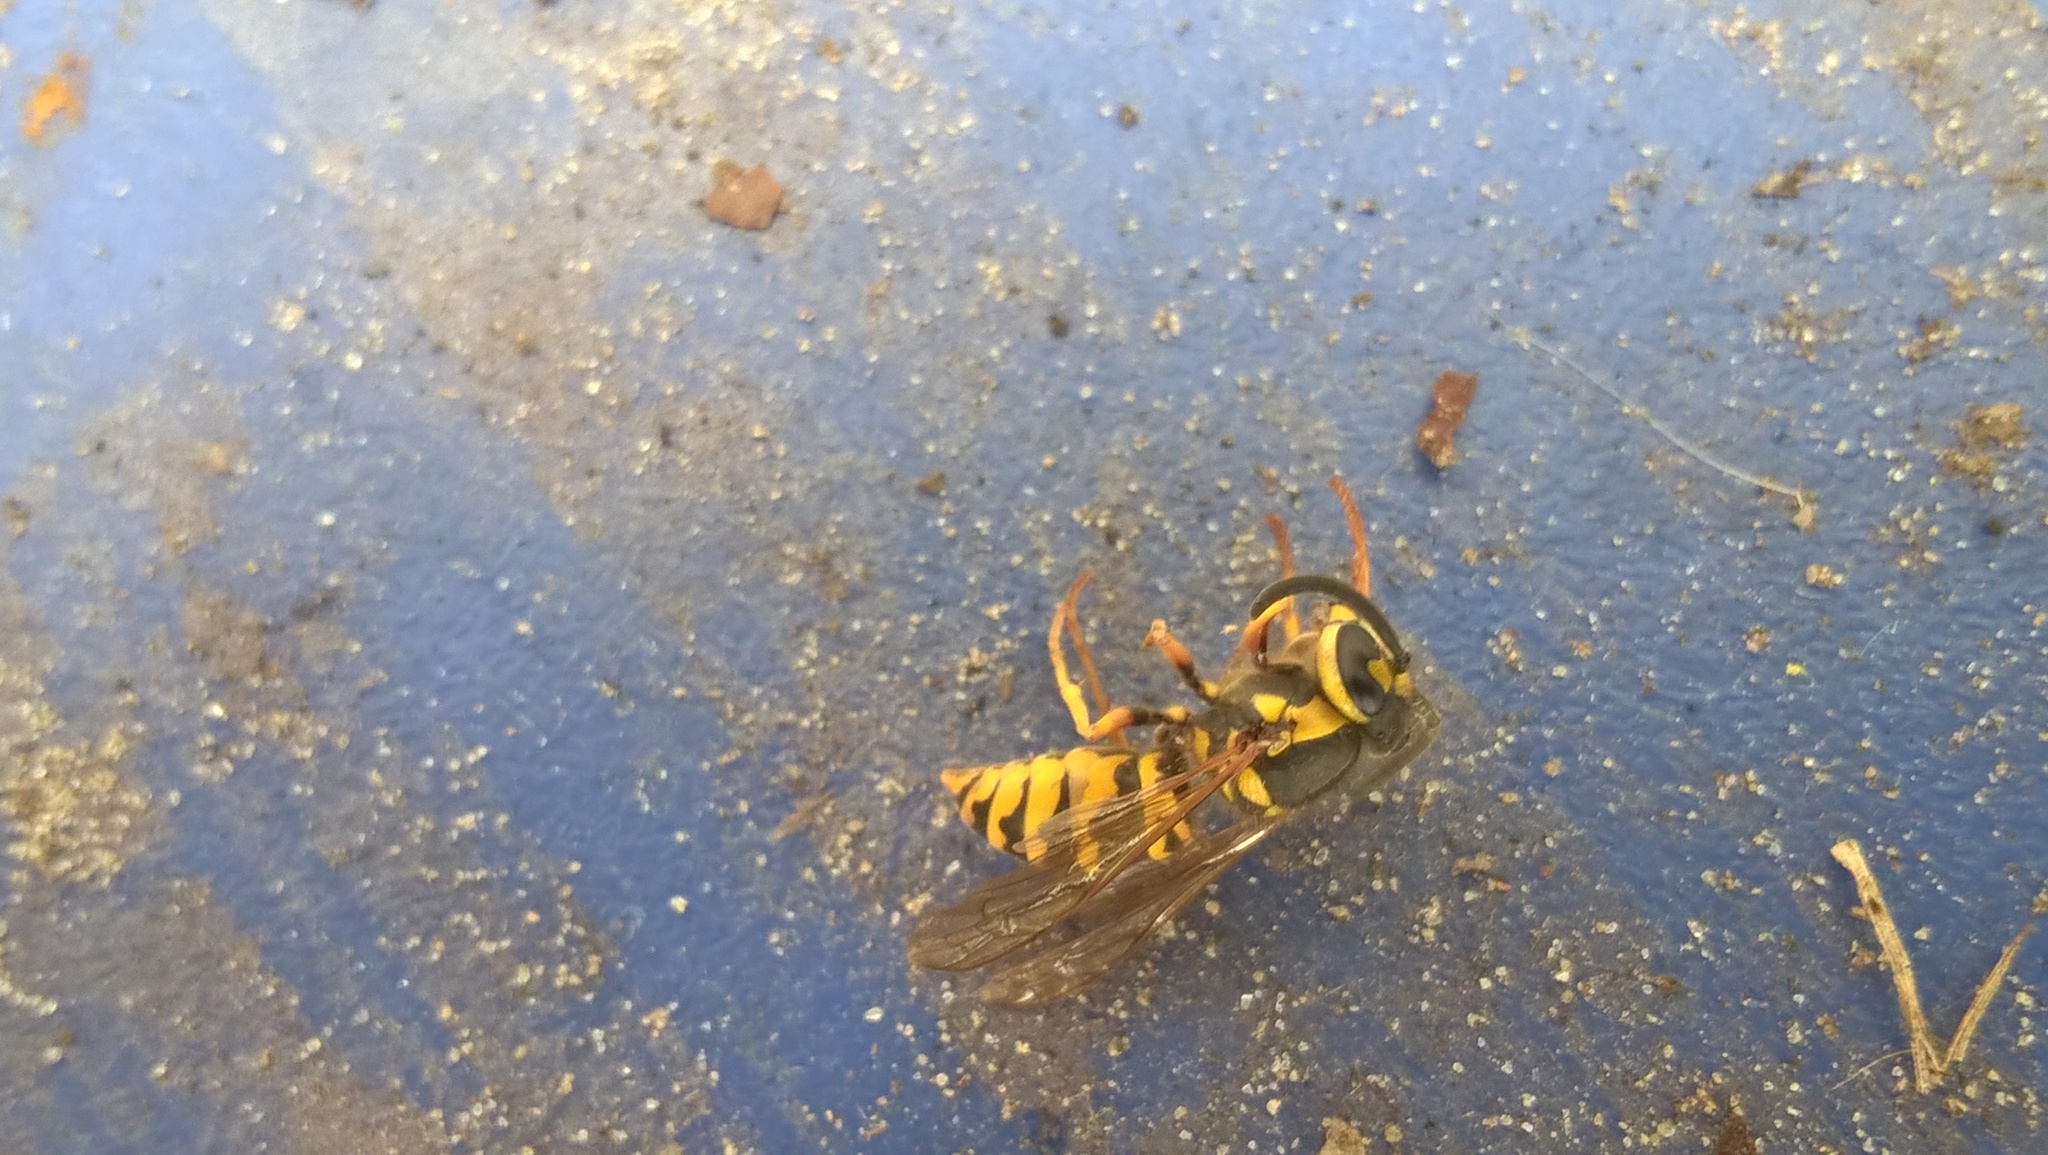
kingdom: Animalia
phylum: Arthropoda
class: Insecta
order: Hymenoptera
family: Vespidae
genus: Vespula
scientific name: Vespula maculifrons
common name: Eastern yellowjacket
